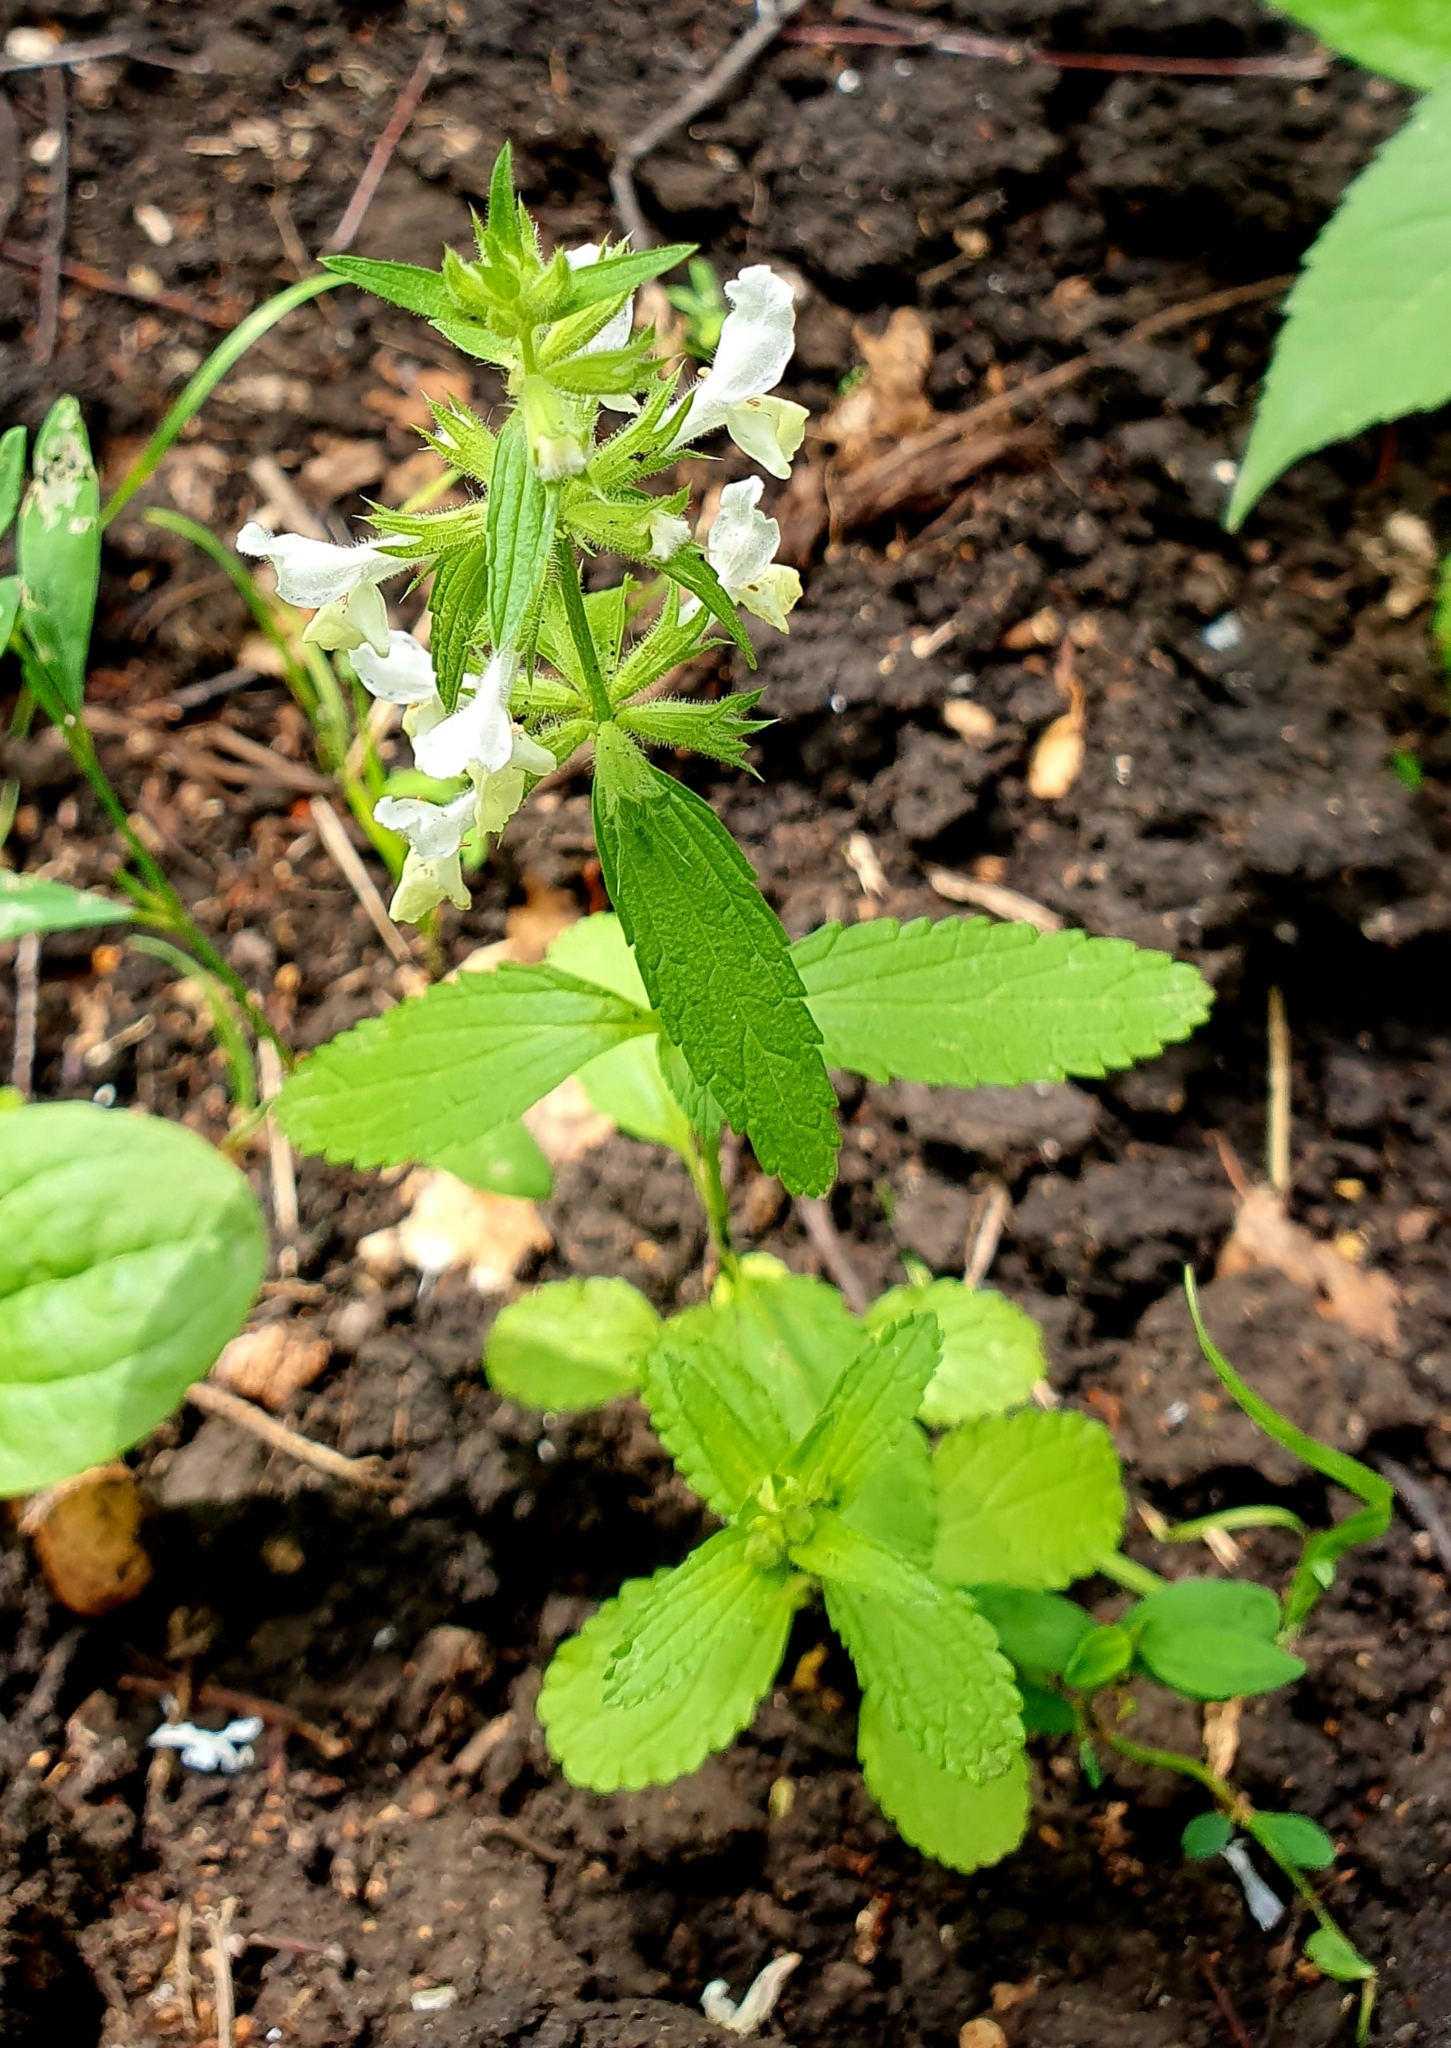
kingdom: Plantae
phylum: Tracheophyta
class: Magnoliopsida
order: Lamiales
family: Lamiaceae
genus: Stachys
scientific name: Stachys annua
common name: Annual yellow-woundwort
